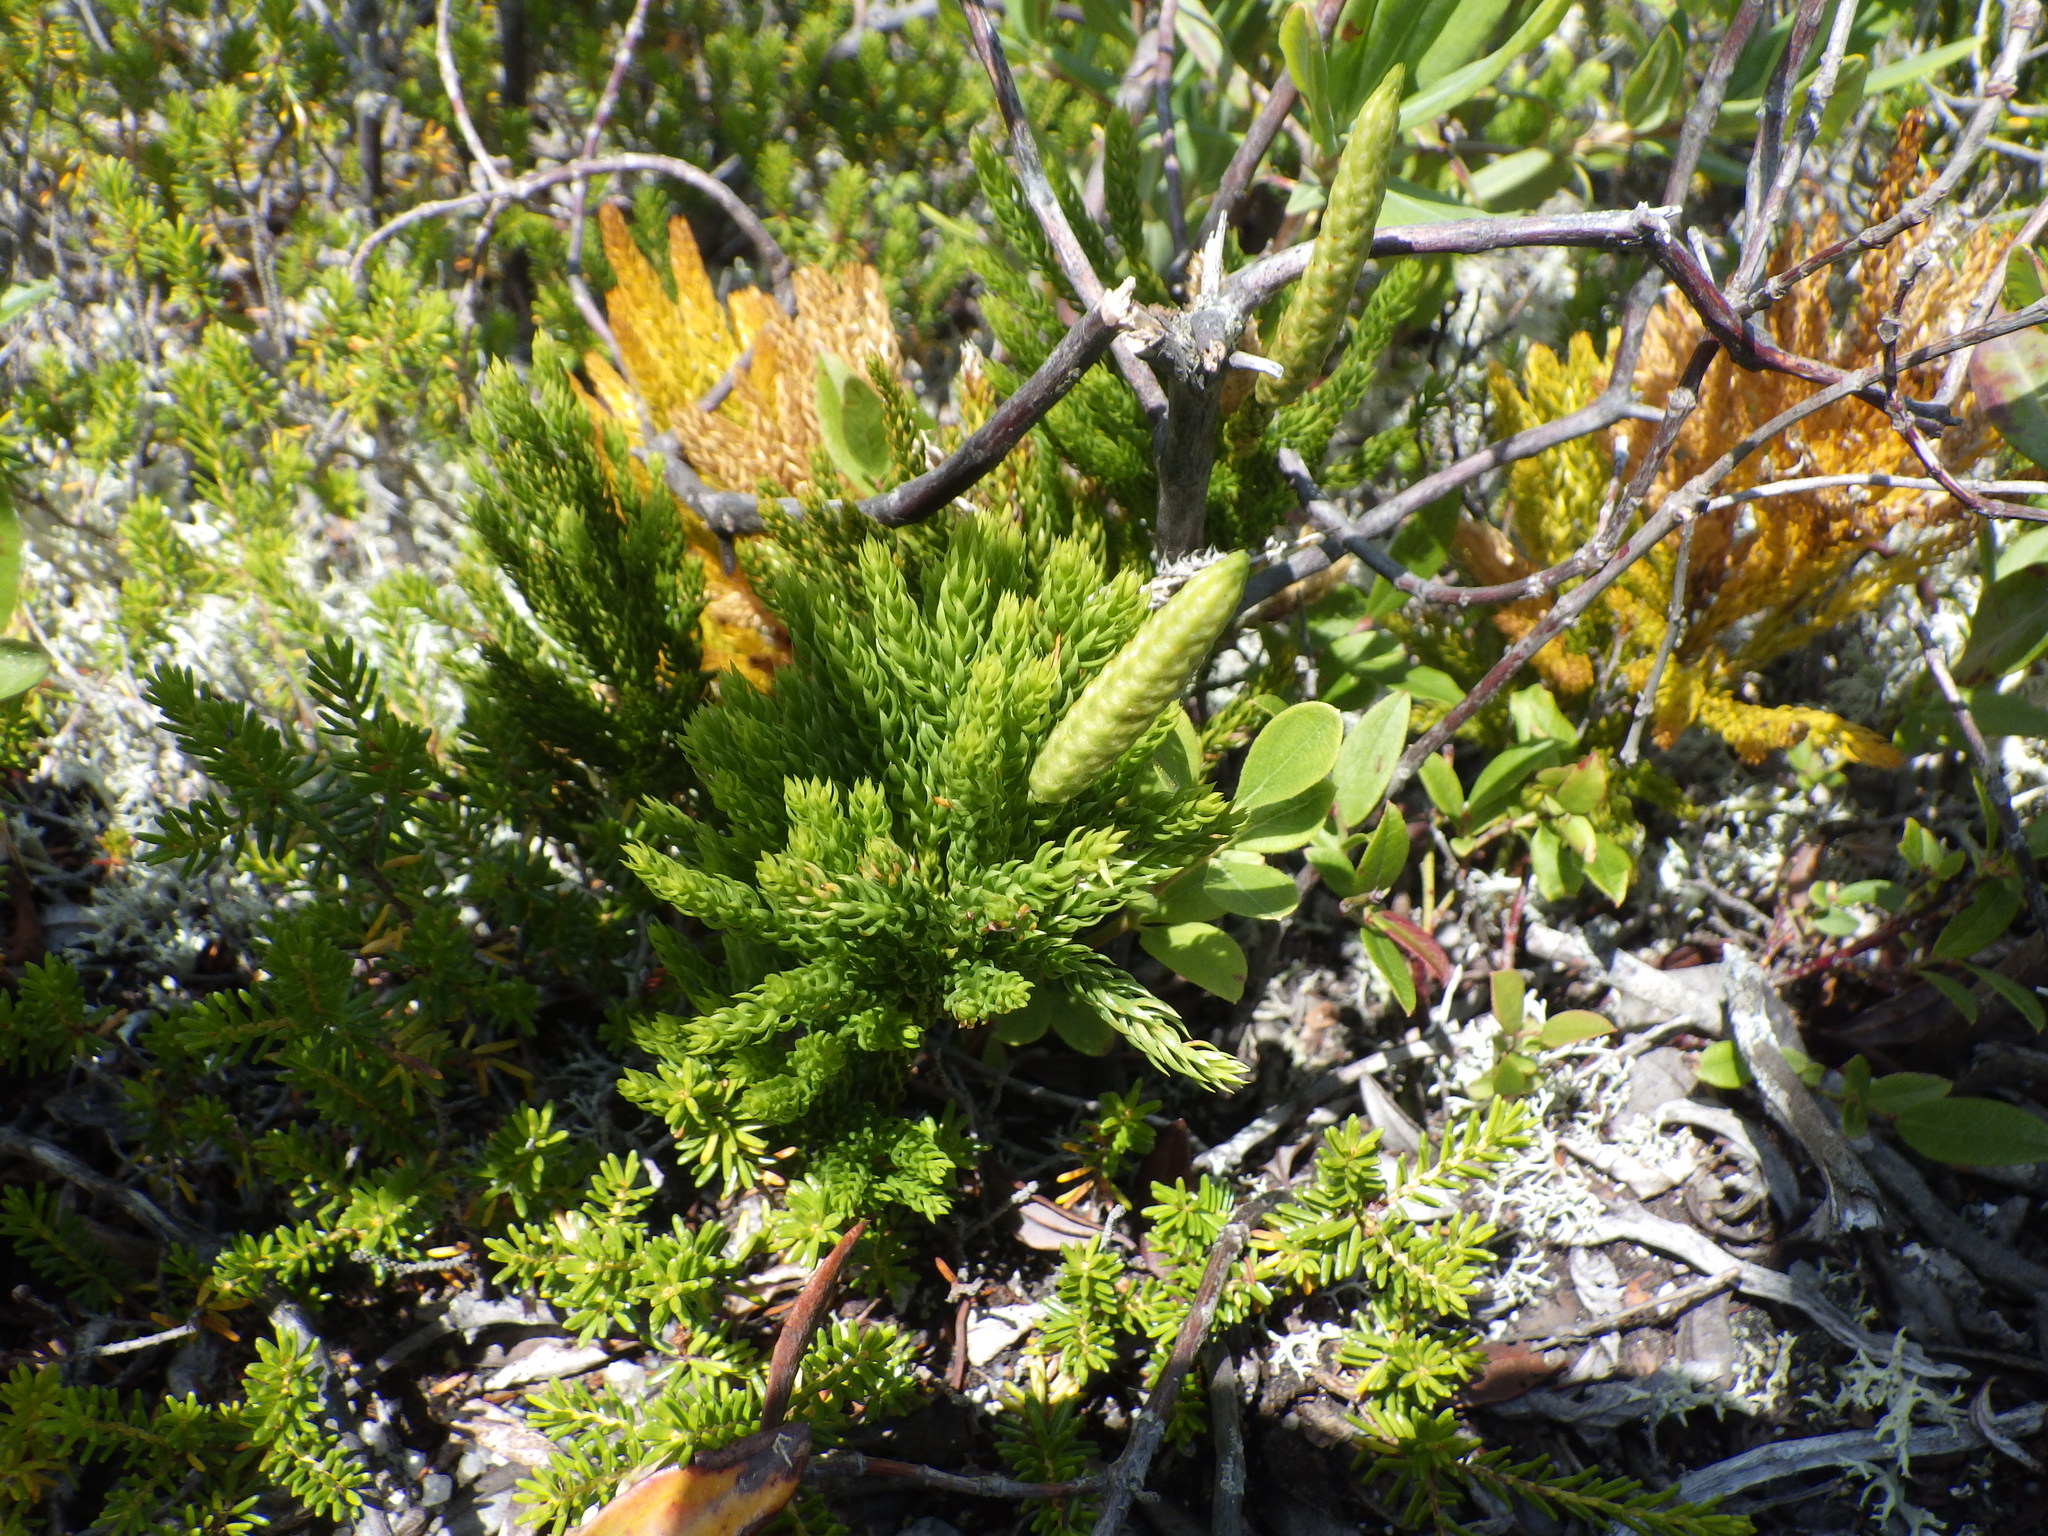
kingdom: Plantae
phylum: Tracheophyta
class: Lycopodiopsida
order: Lycopodiales
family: Lycopodiaceae
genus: Dendrolycopodium
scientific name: Dendrolycopodium hickeyi
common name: Hickey's clubmoss
